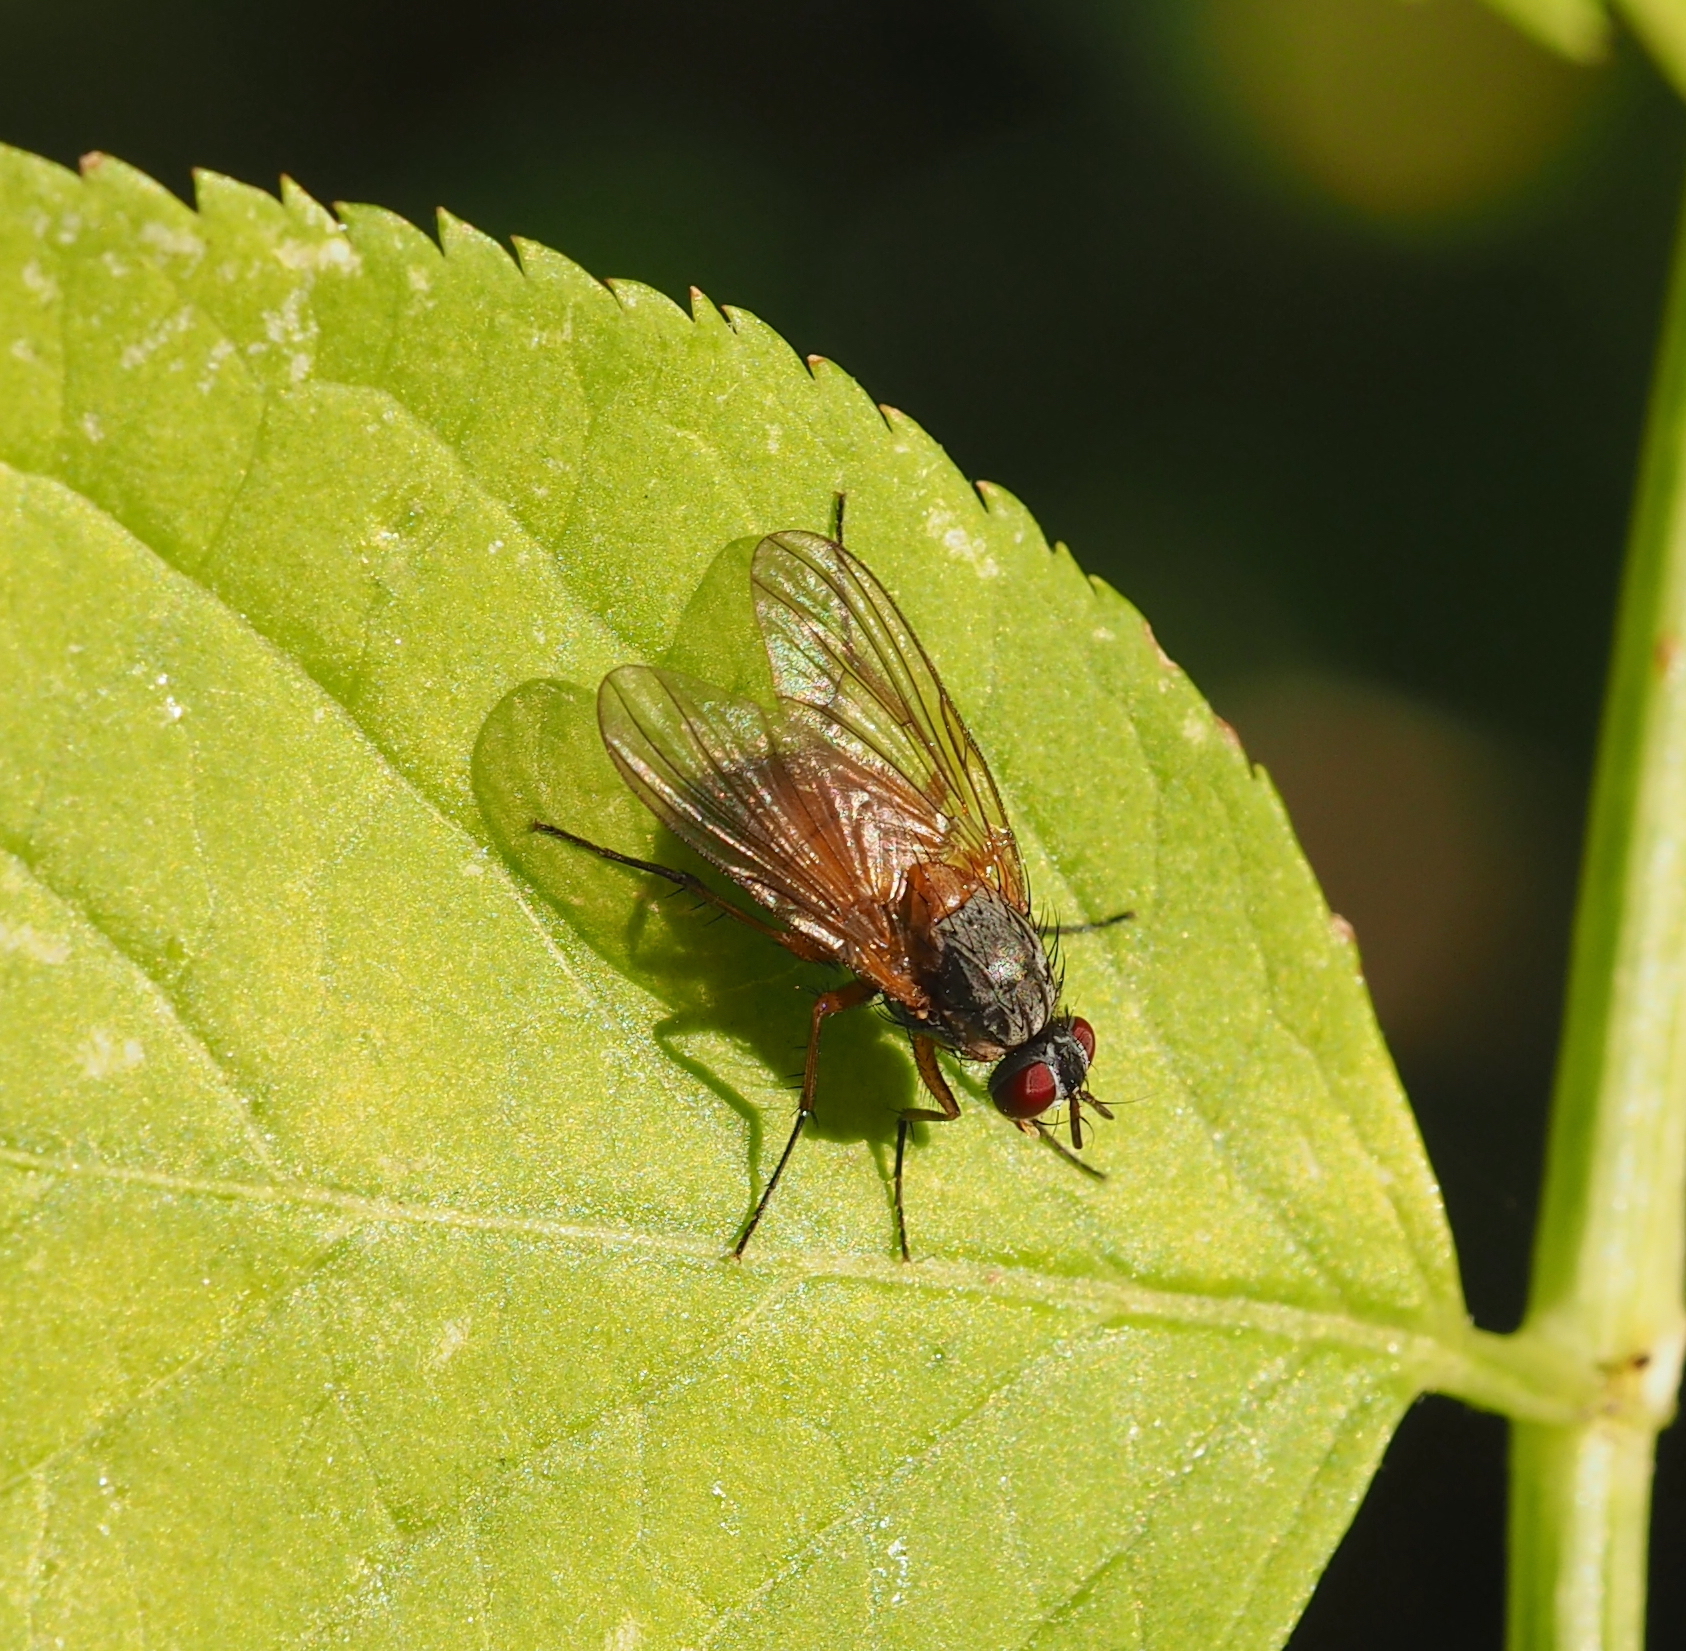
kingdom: Animalia
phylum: Arthropoda
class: Insecta
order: Diptera
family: Muscidae
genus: Phaonia
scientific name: Phaonia rufiventris
